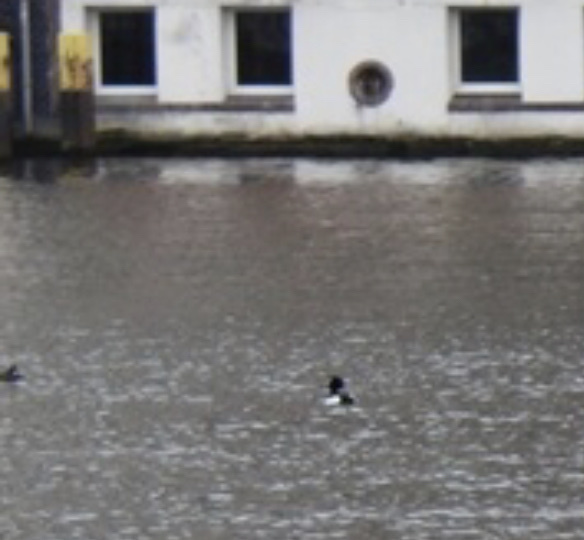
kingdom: Animalia
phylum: Chordata
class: Aves
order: Anseriformes
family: Anatidae
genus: Aythya
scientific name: Aythya fuligula
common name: Tufted duck
